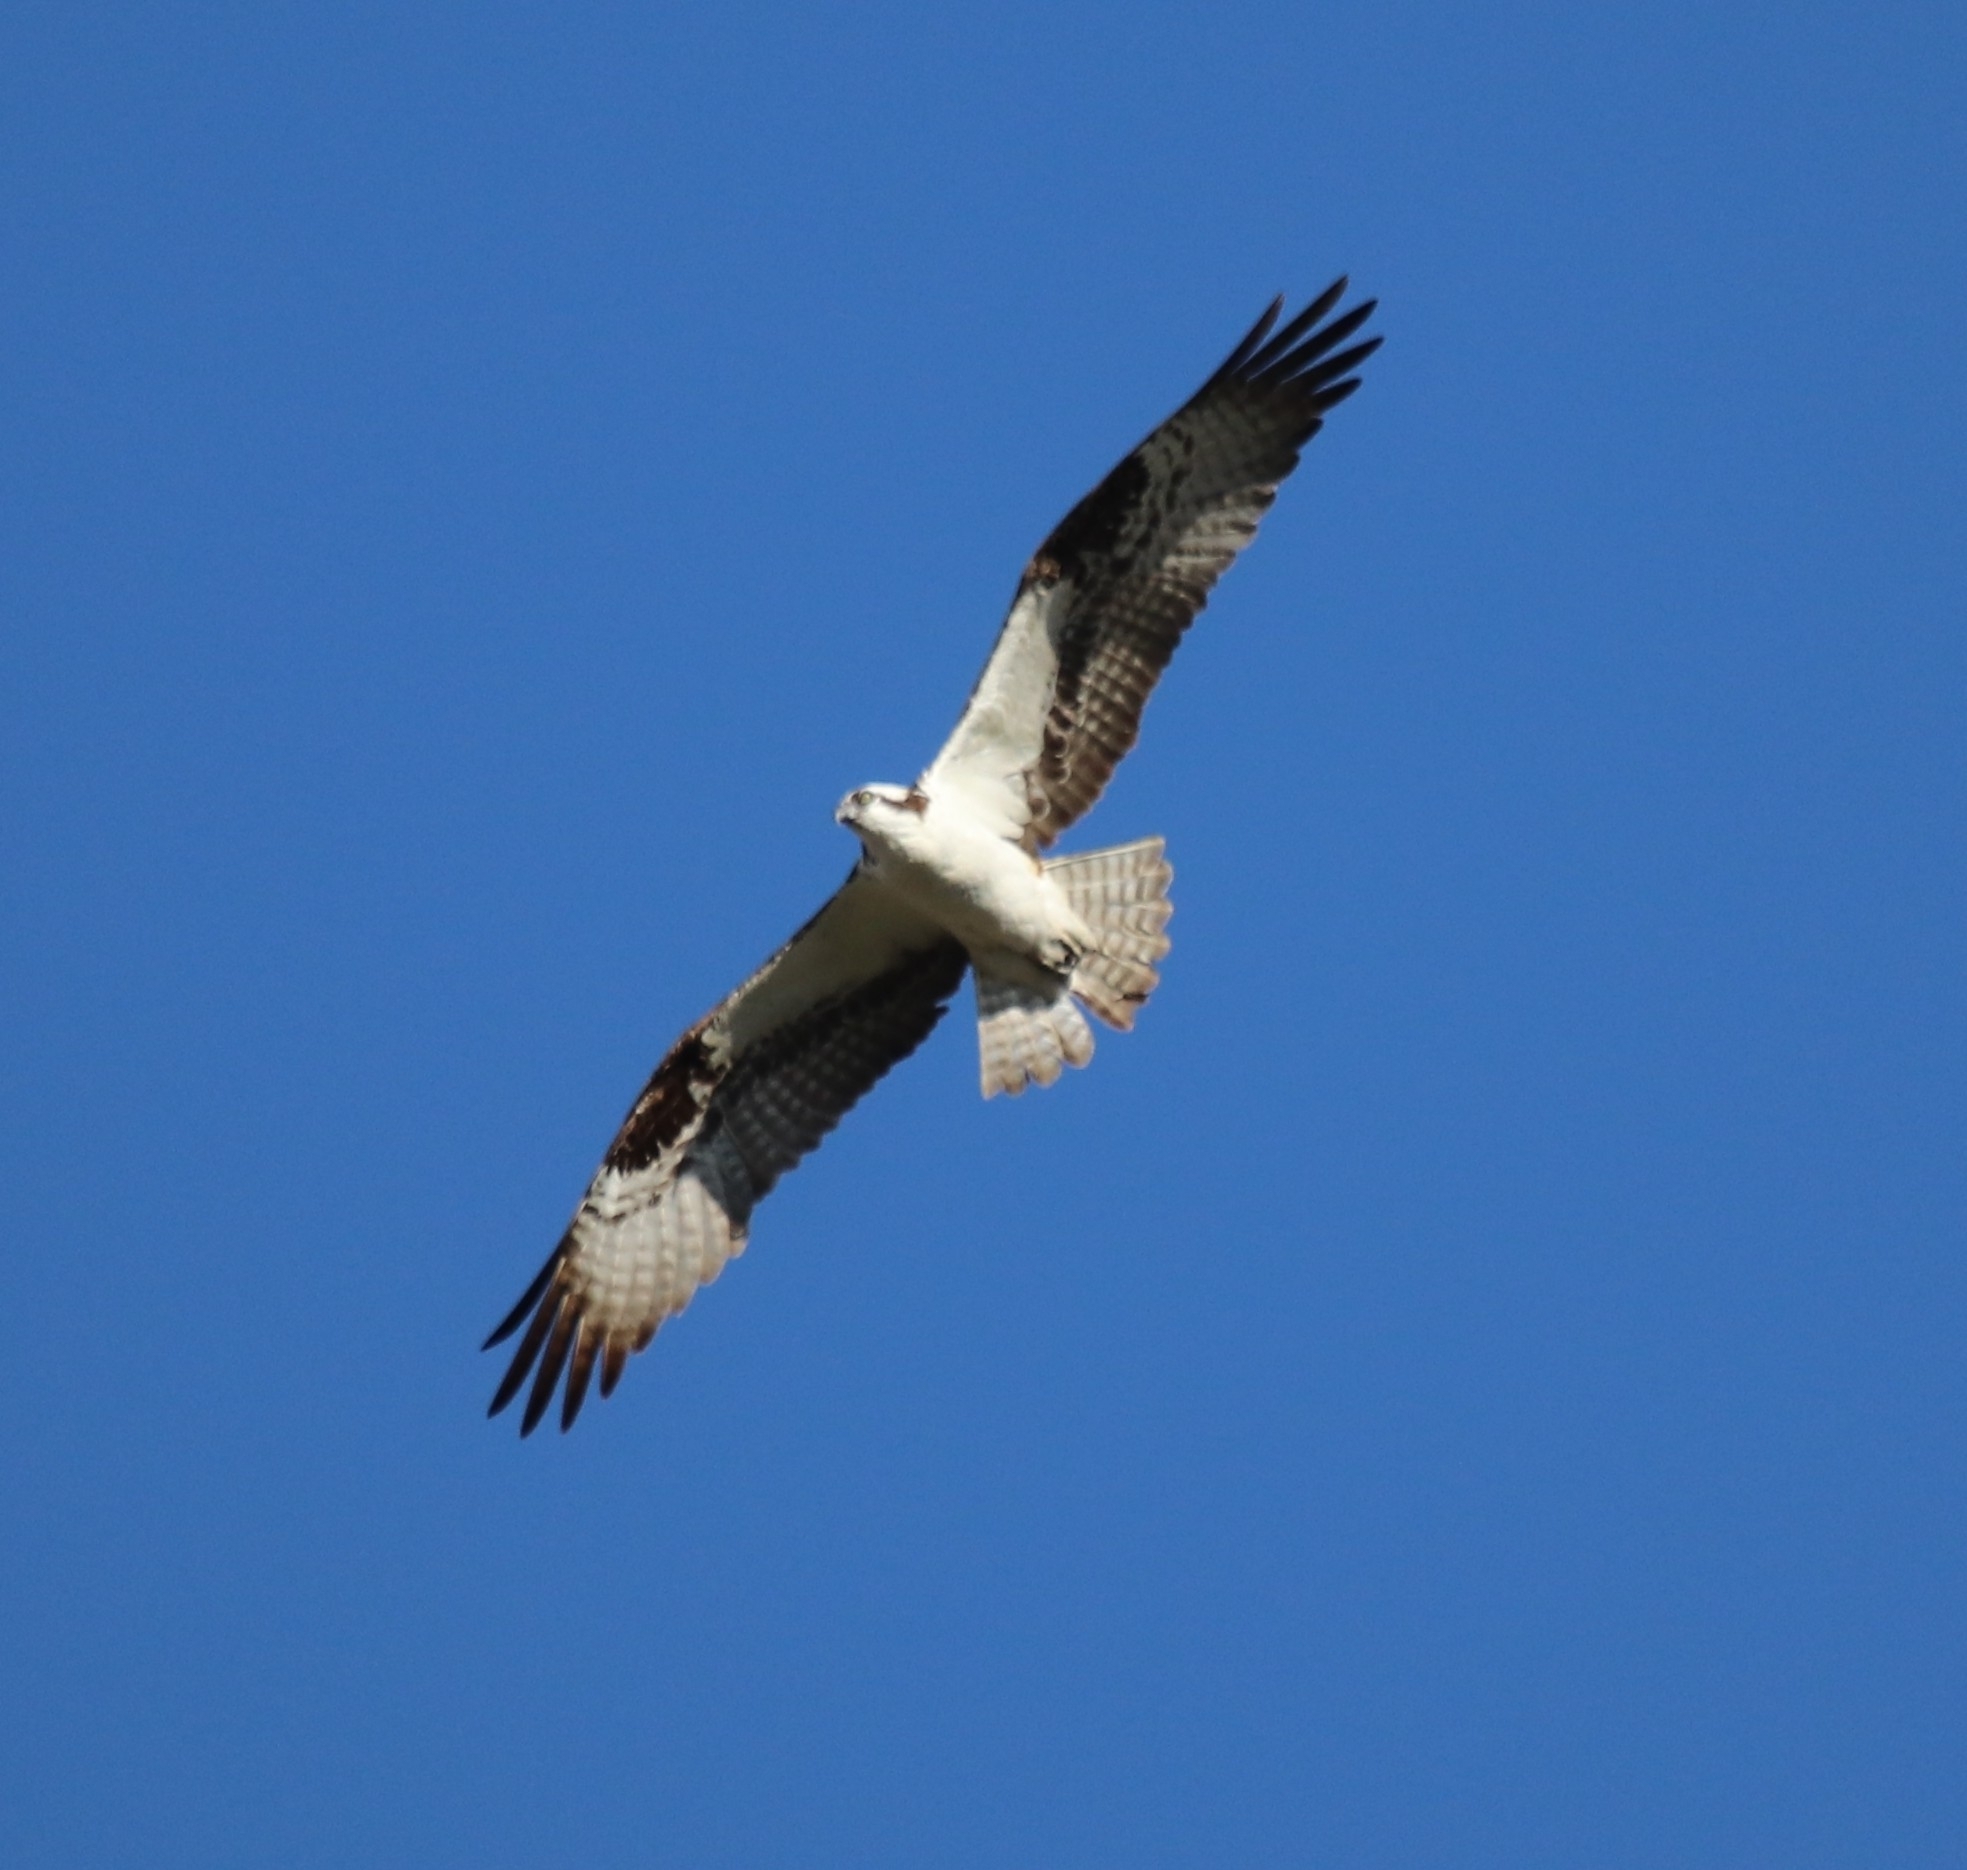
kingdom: Animalia
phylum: Chordata
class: Aves
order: Accipitriformes
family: Pandionidae
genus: Pandion
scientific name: Pandion haliaetus
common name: Osprey
